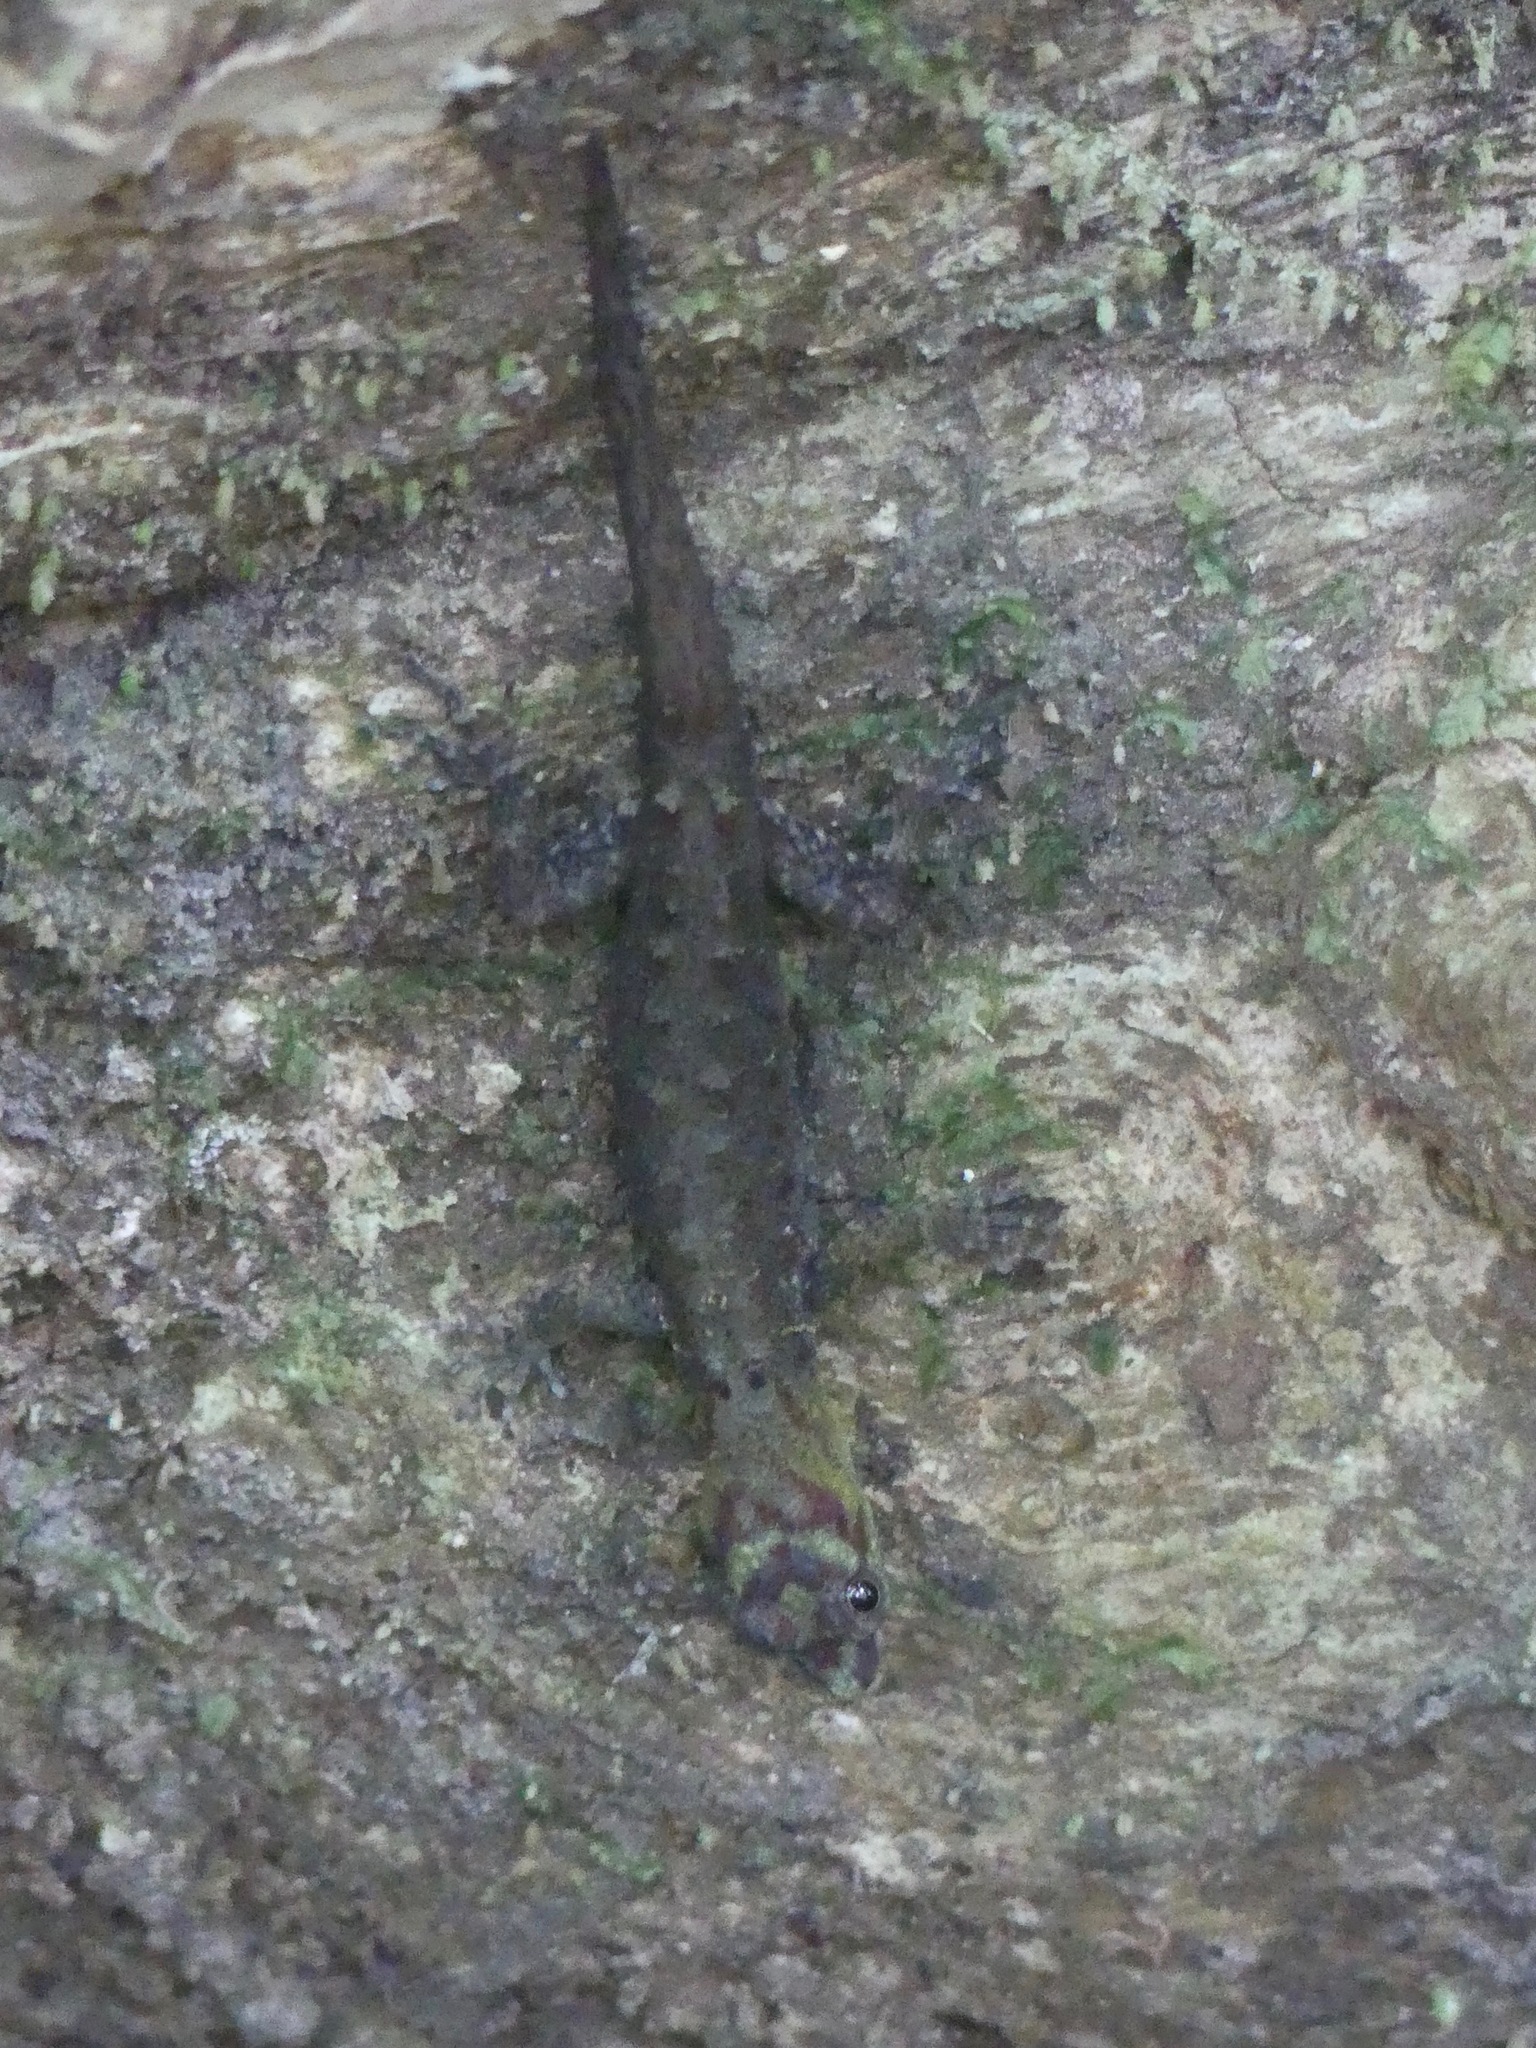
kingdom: Animalia
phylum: Chordata
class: Squamata
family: Sphaerodactylidae
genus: Gonatodes
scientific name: Gonatodes humeralis
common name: South american clawed gecko
